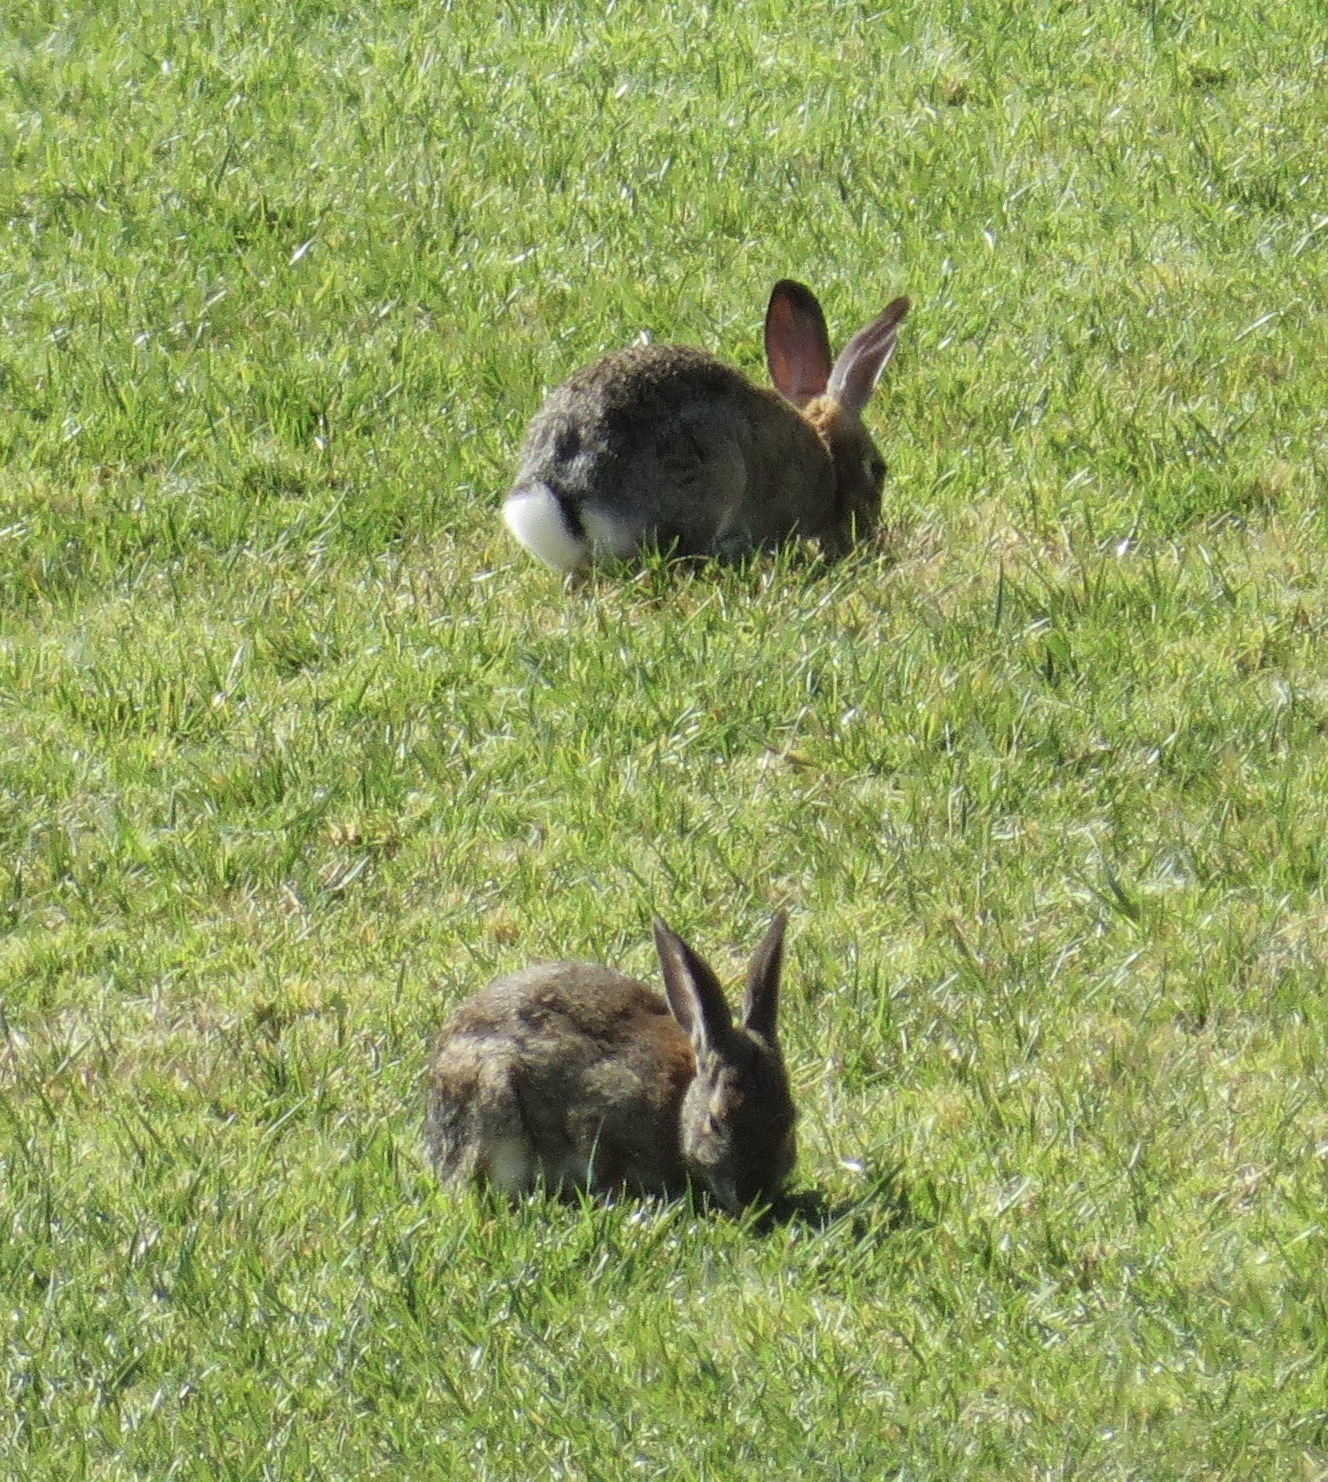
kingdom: Animalia
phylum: Chordata
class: Mammalia
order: Lagomorpha
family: Leporidae
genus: Sylvilagus
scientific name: Sylvilagus audubonii
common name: Desert cottontail
